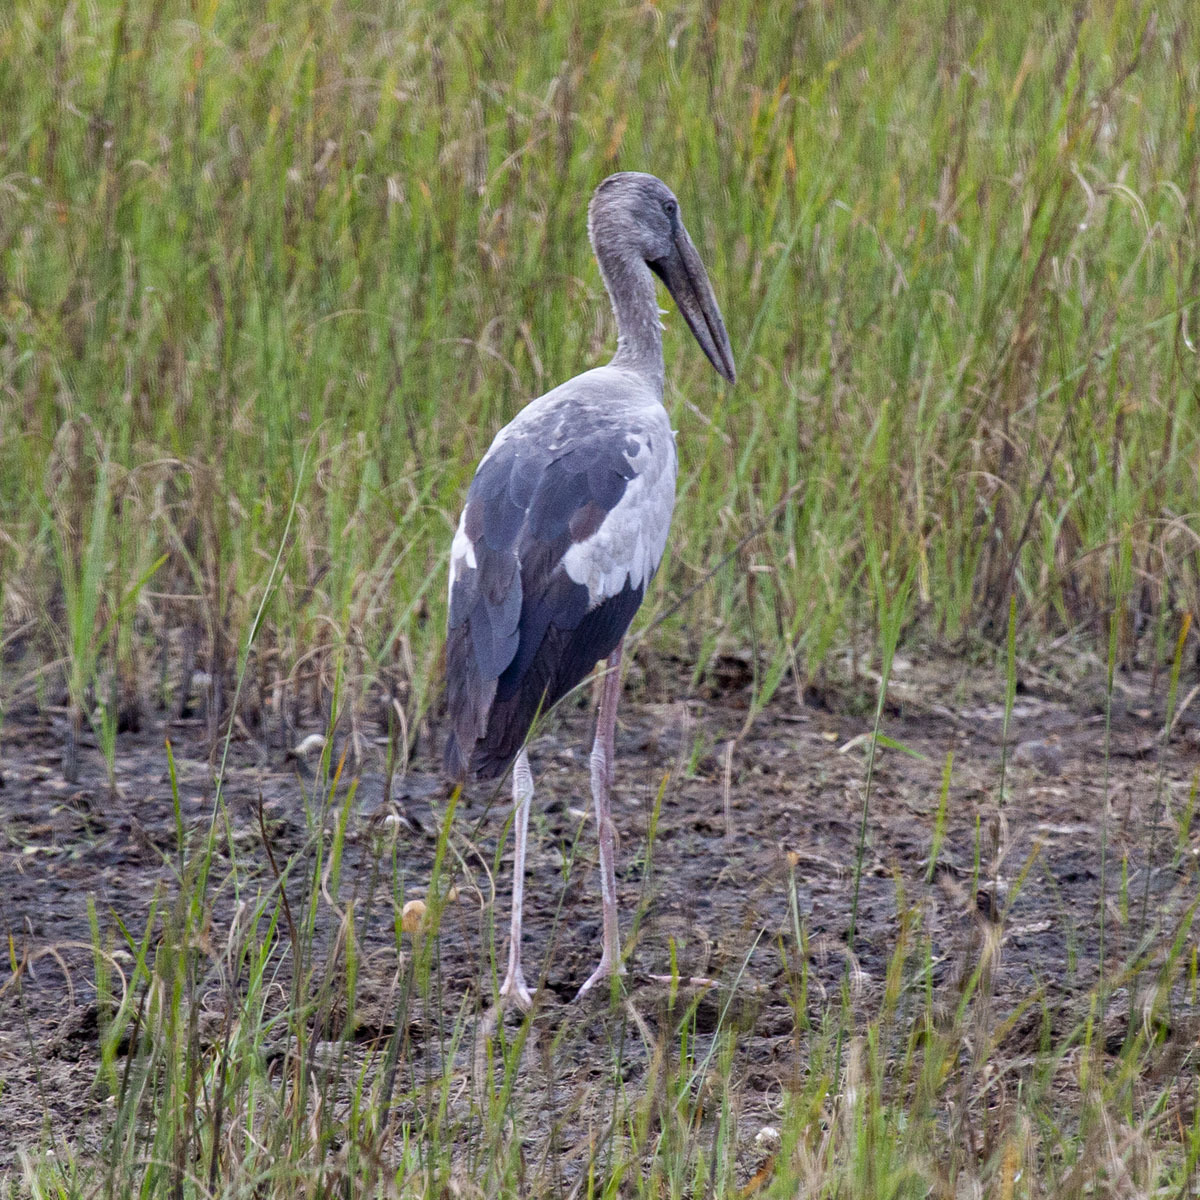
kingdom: Animalia
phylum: Chordata
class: Aves
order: Ciconiiformes
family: Ciconiidae
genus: Anastomus
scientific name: Anastomus oscitans
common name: Asian openbill
